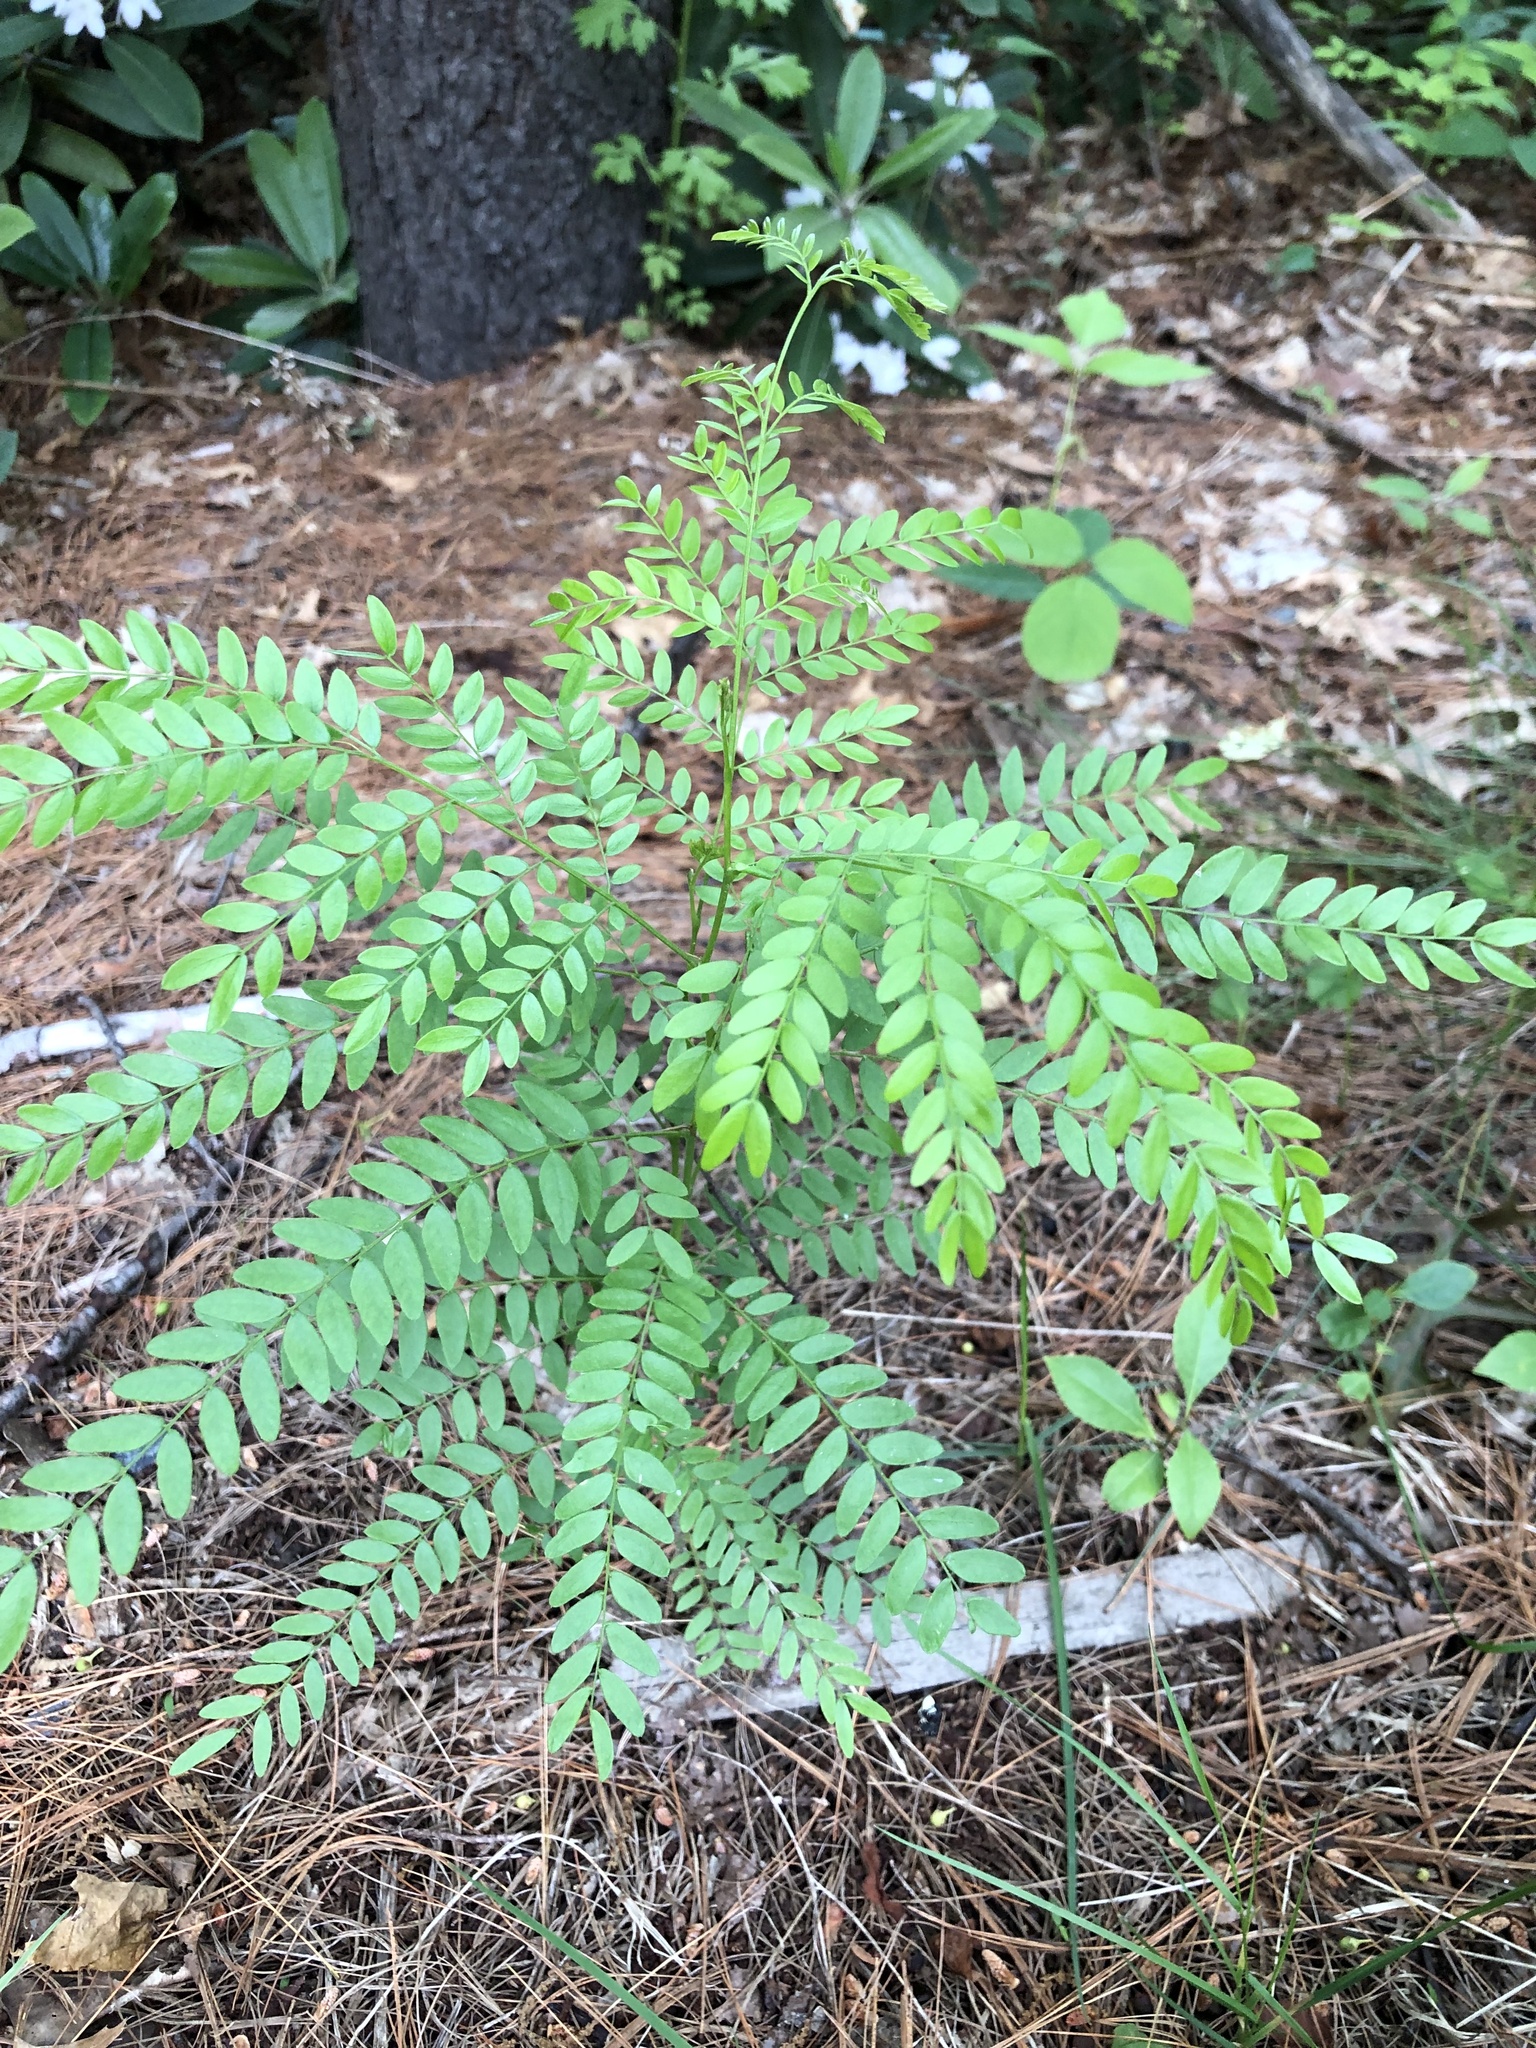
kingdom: Plantae
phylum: Tracheophyta
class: Magnoliopsida
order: Fabales
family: Fabaceae
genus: Gleditsia
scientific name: Gleditsia triacanthos
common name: Common honeylocust
